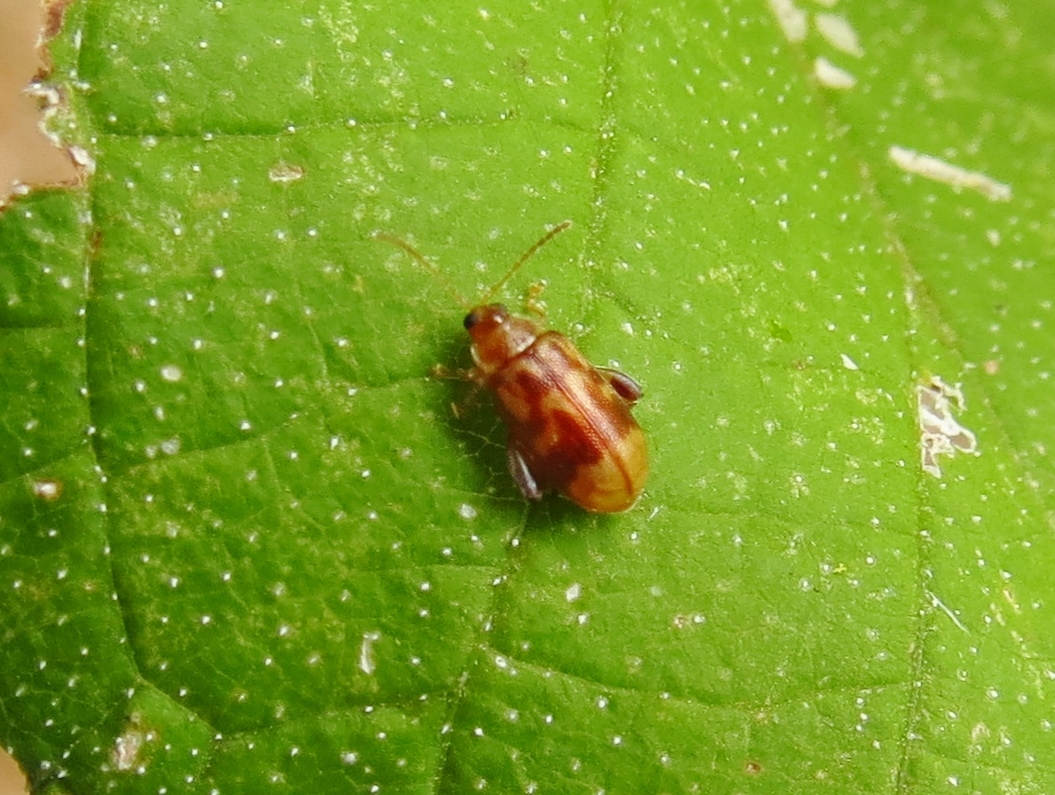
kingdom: Animalia
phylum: Arthropoda
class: Insecta
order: Coleoptera
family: Chrysomelidae
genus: Capraita
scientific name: Capraita sexmaculata
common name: Charlie brown flea beetle
